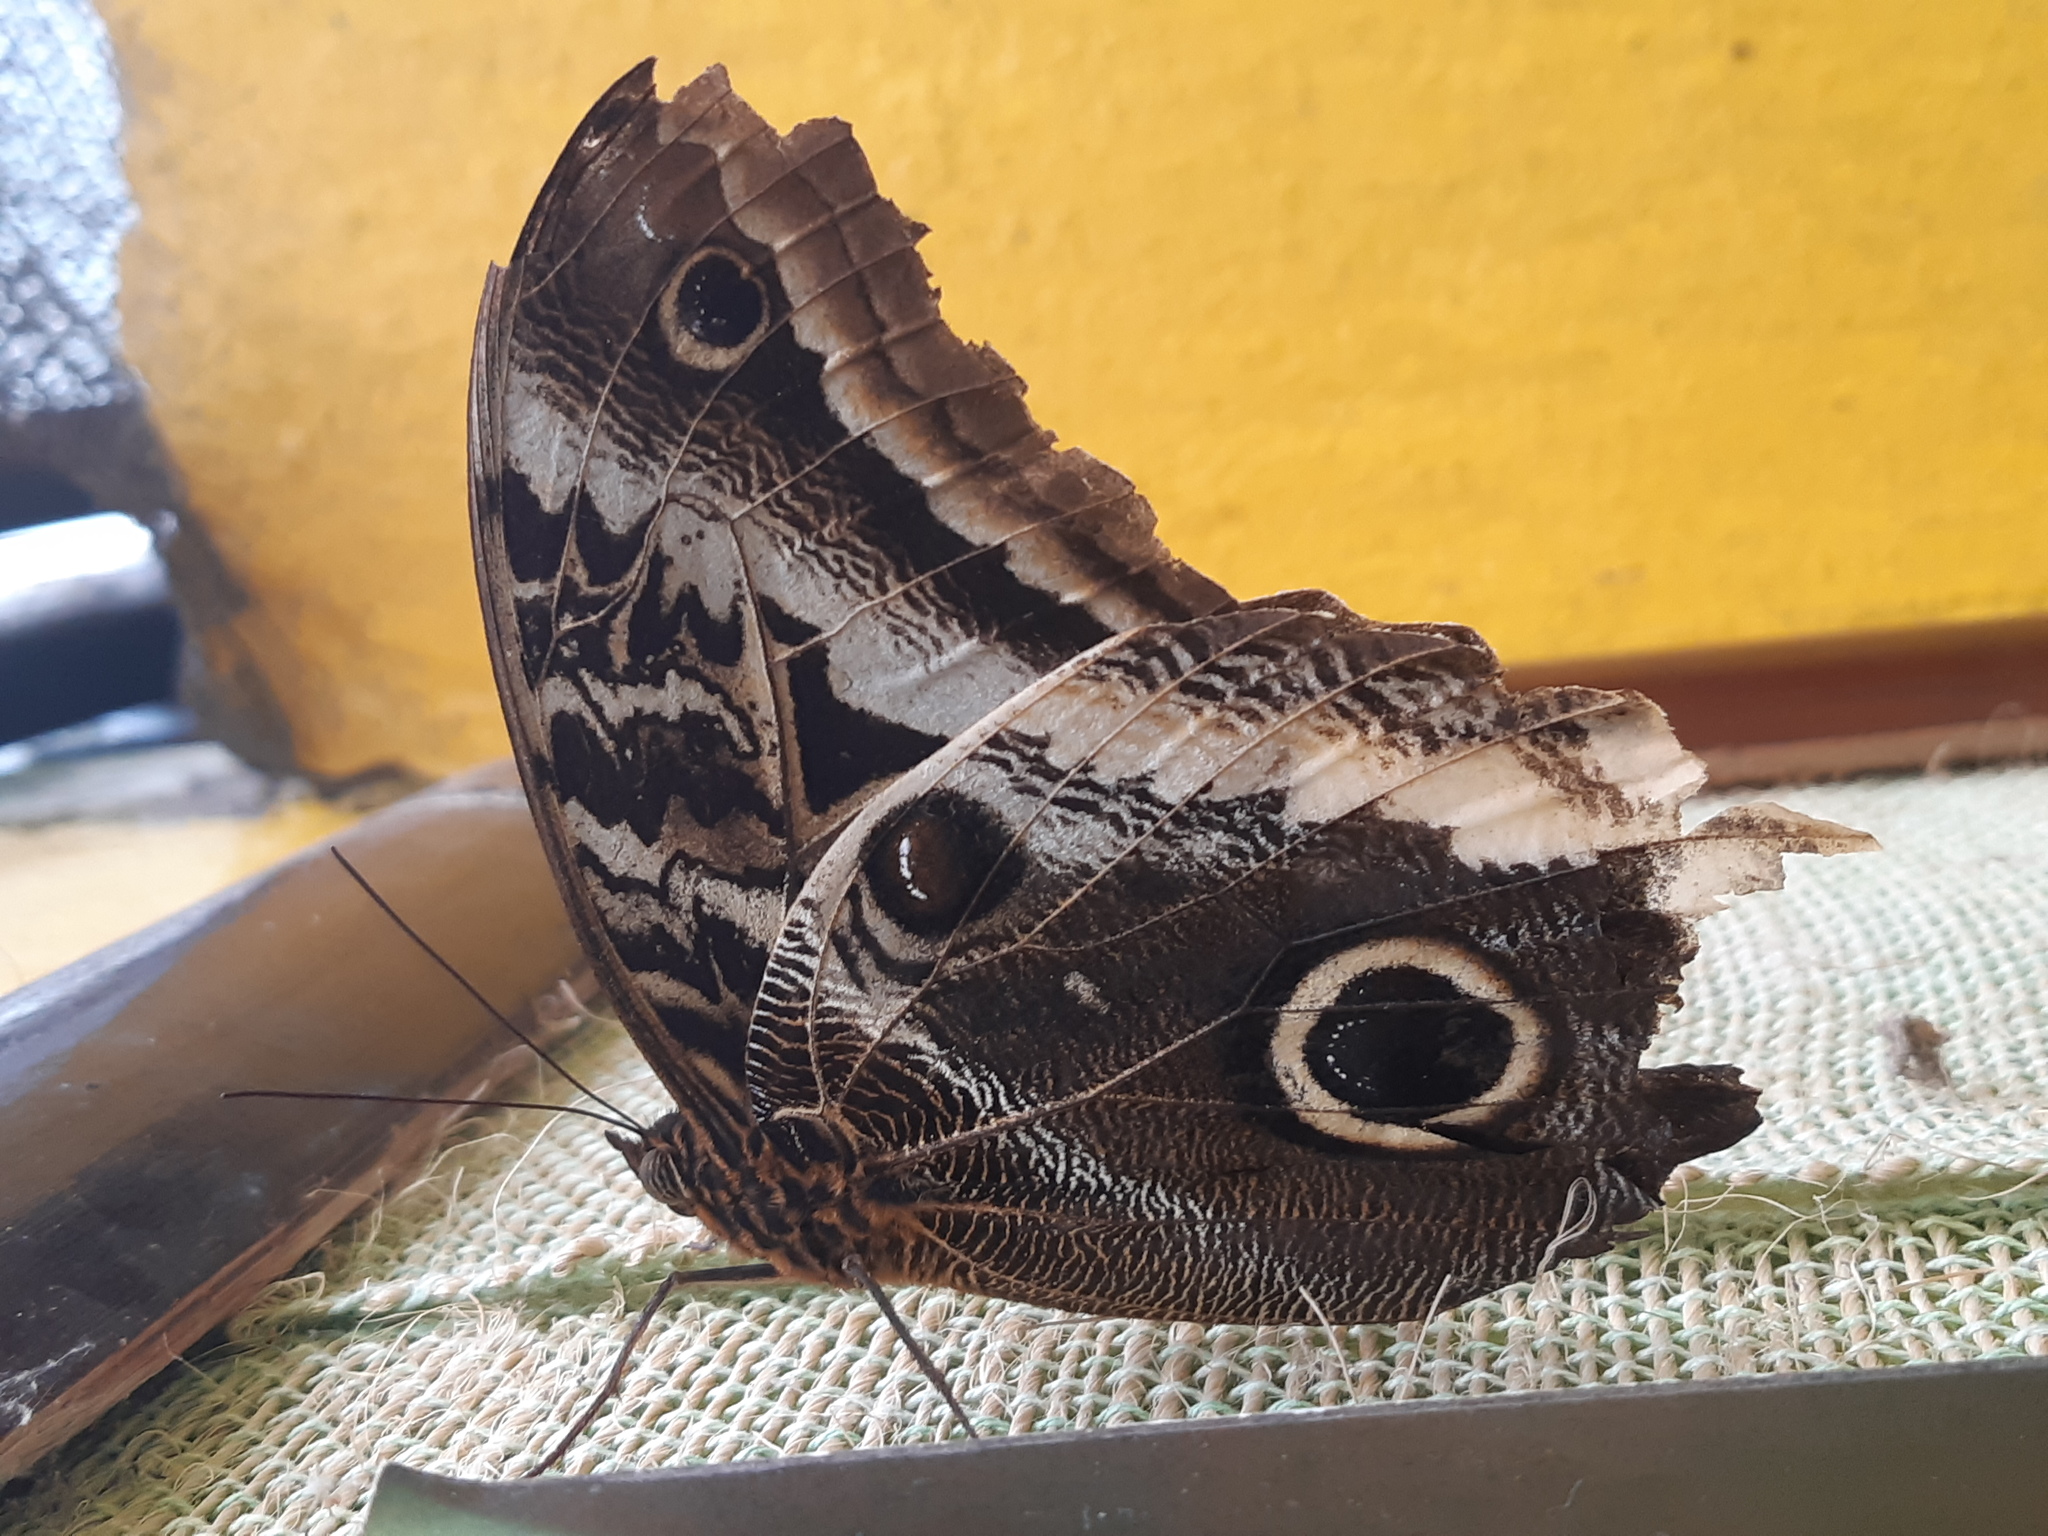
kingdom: Animalia
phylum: Arthropoda
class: Insecta
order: Lepidoptera
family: Nymphalidae
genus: Caligo
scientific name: Caligo atreus
